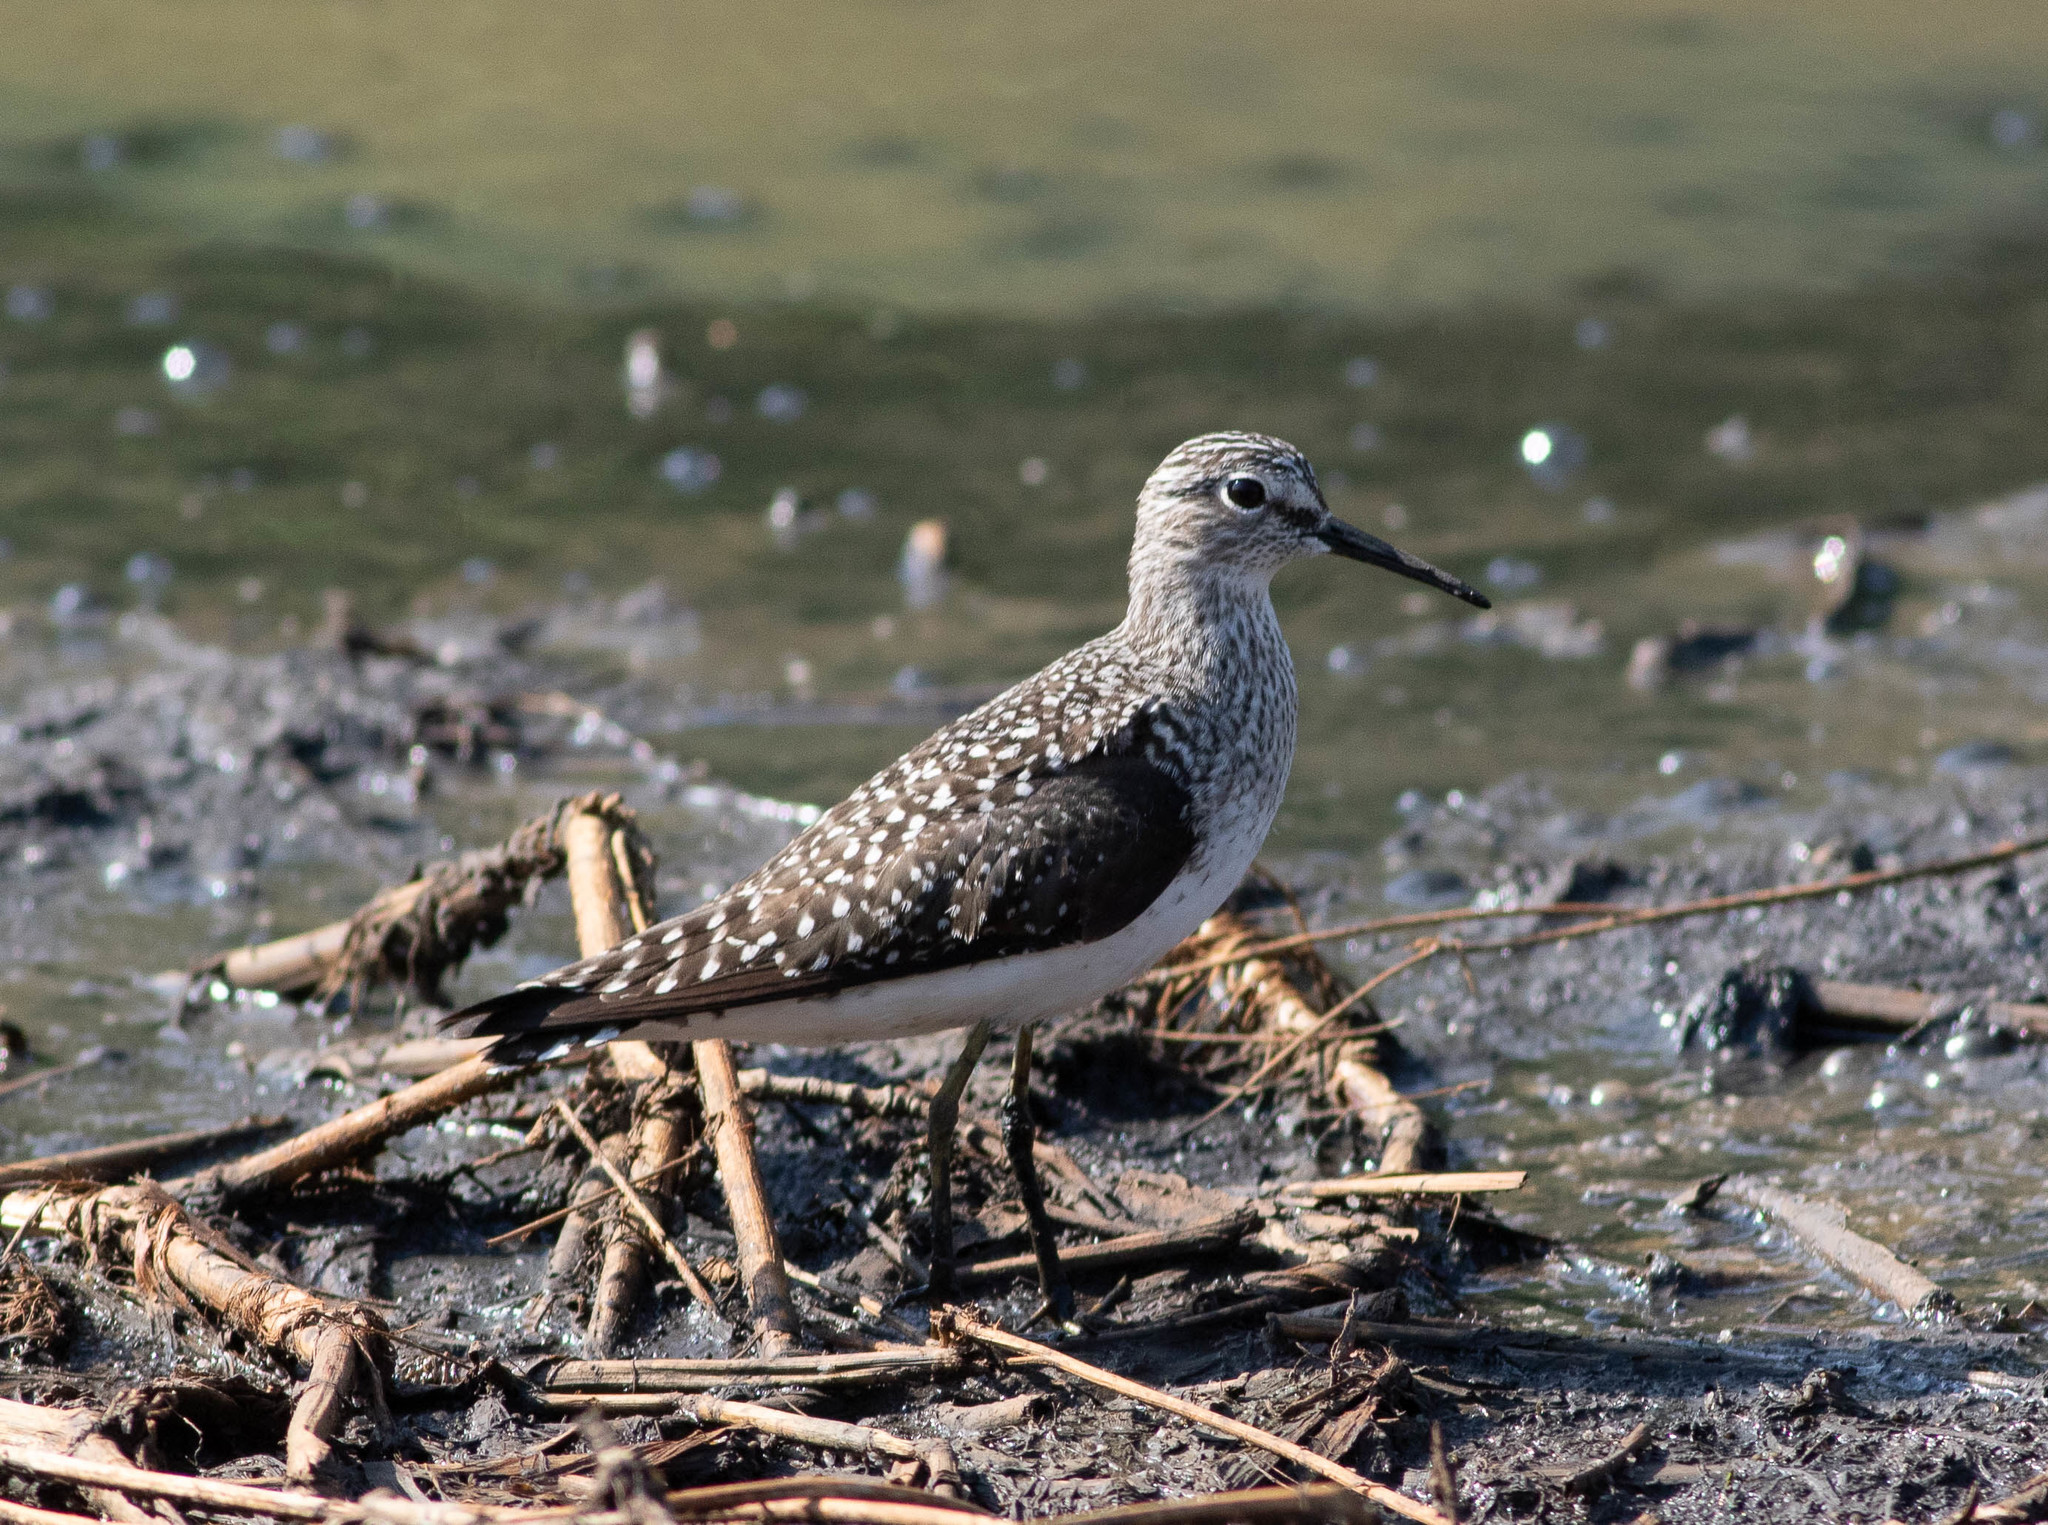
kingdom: Animalia
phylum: Chordata
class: Aves
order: Charadriiformes
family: Scolopacidae
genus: Tringa
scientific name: Tringa solitaria
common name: Solitary sandpiper
